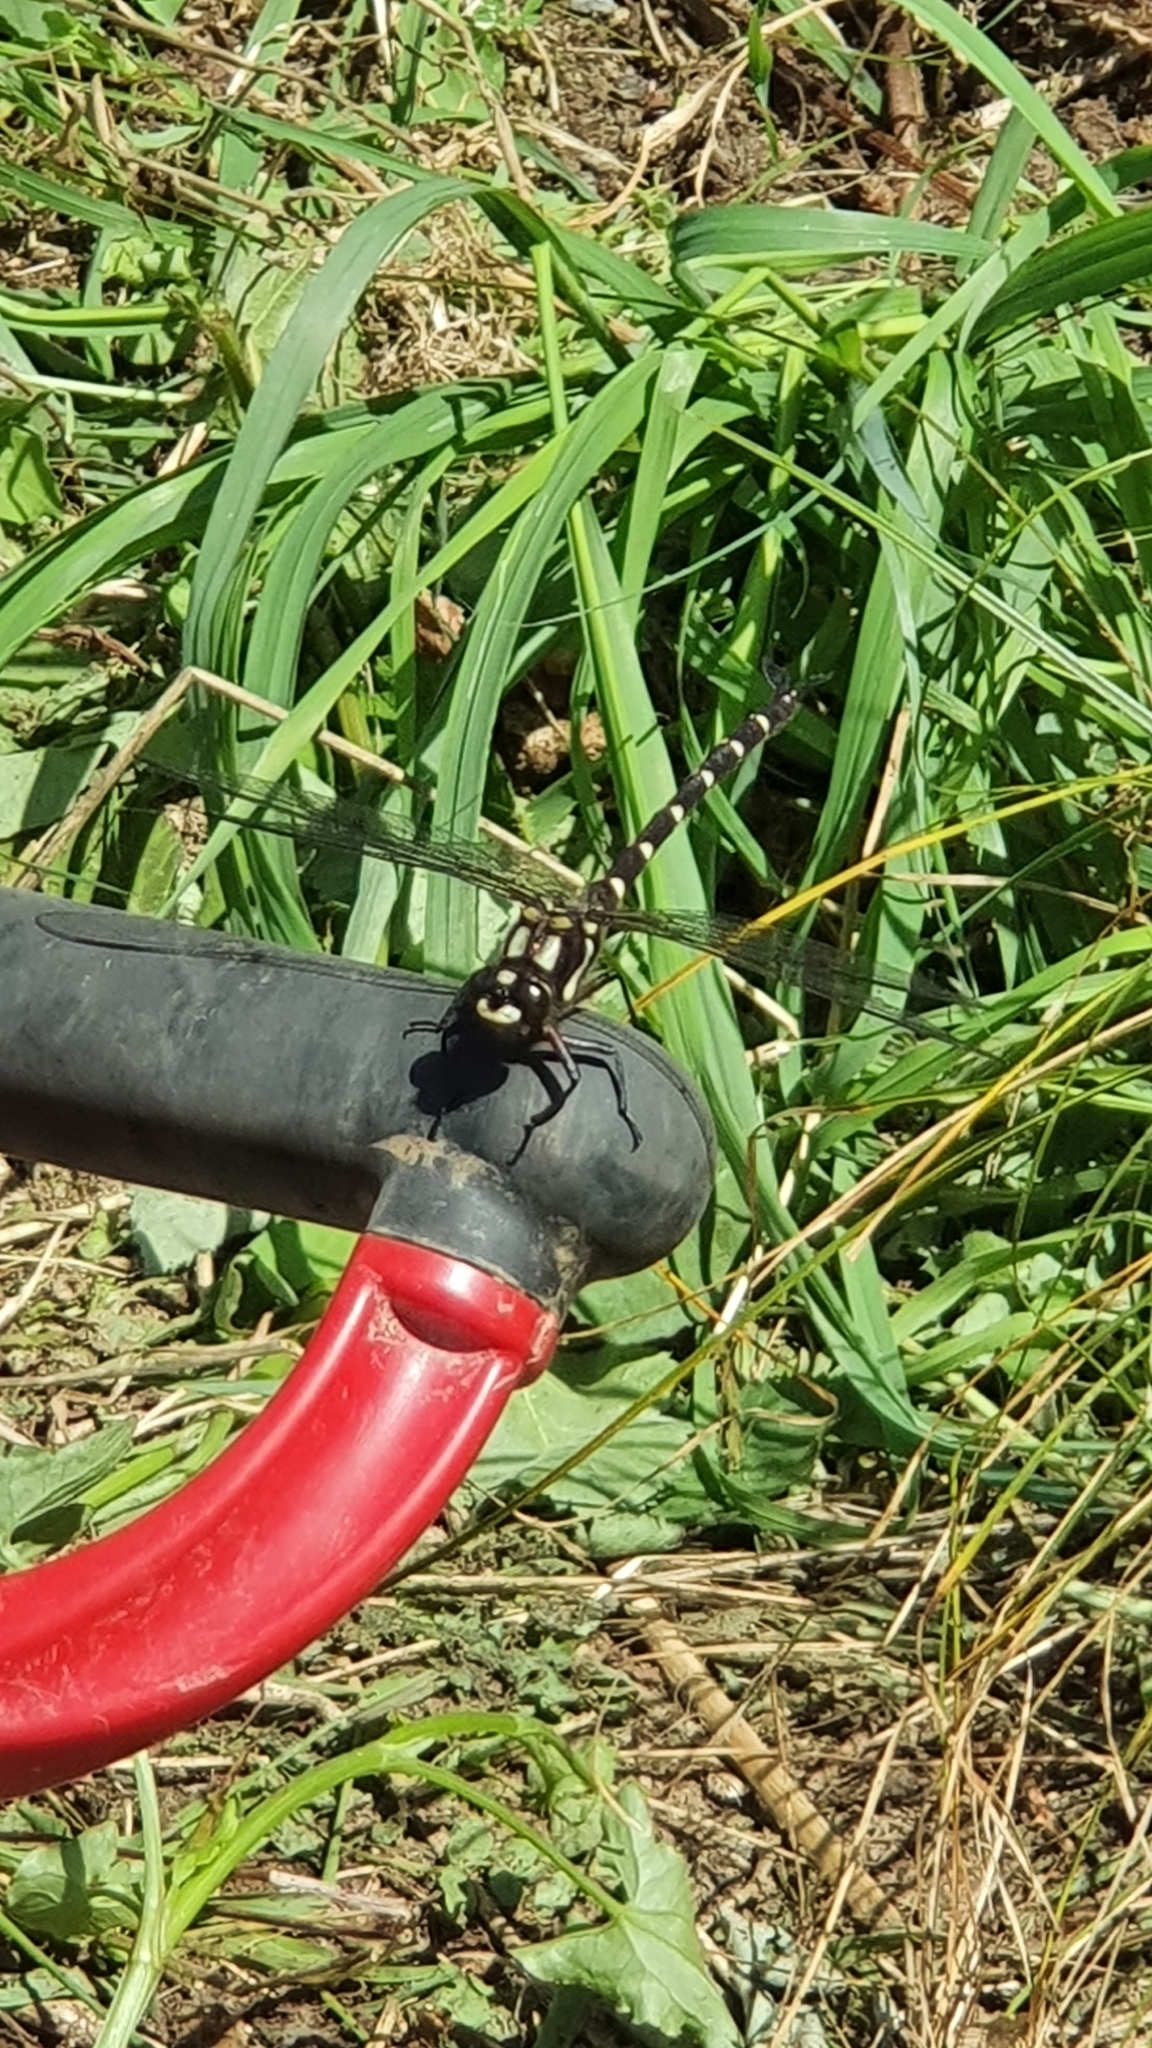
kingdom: Animalia
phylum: Arthropoda
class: Insecta
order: Odonata
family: Petaluridae
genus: Uropetala
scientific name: Uropetala carovei
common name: Bush giant dragonfly
